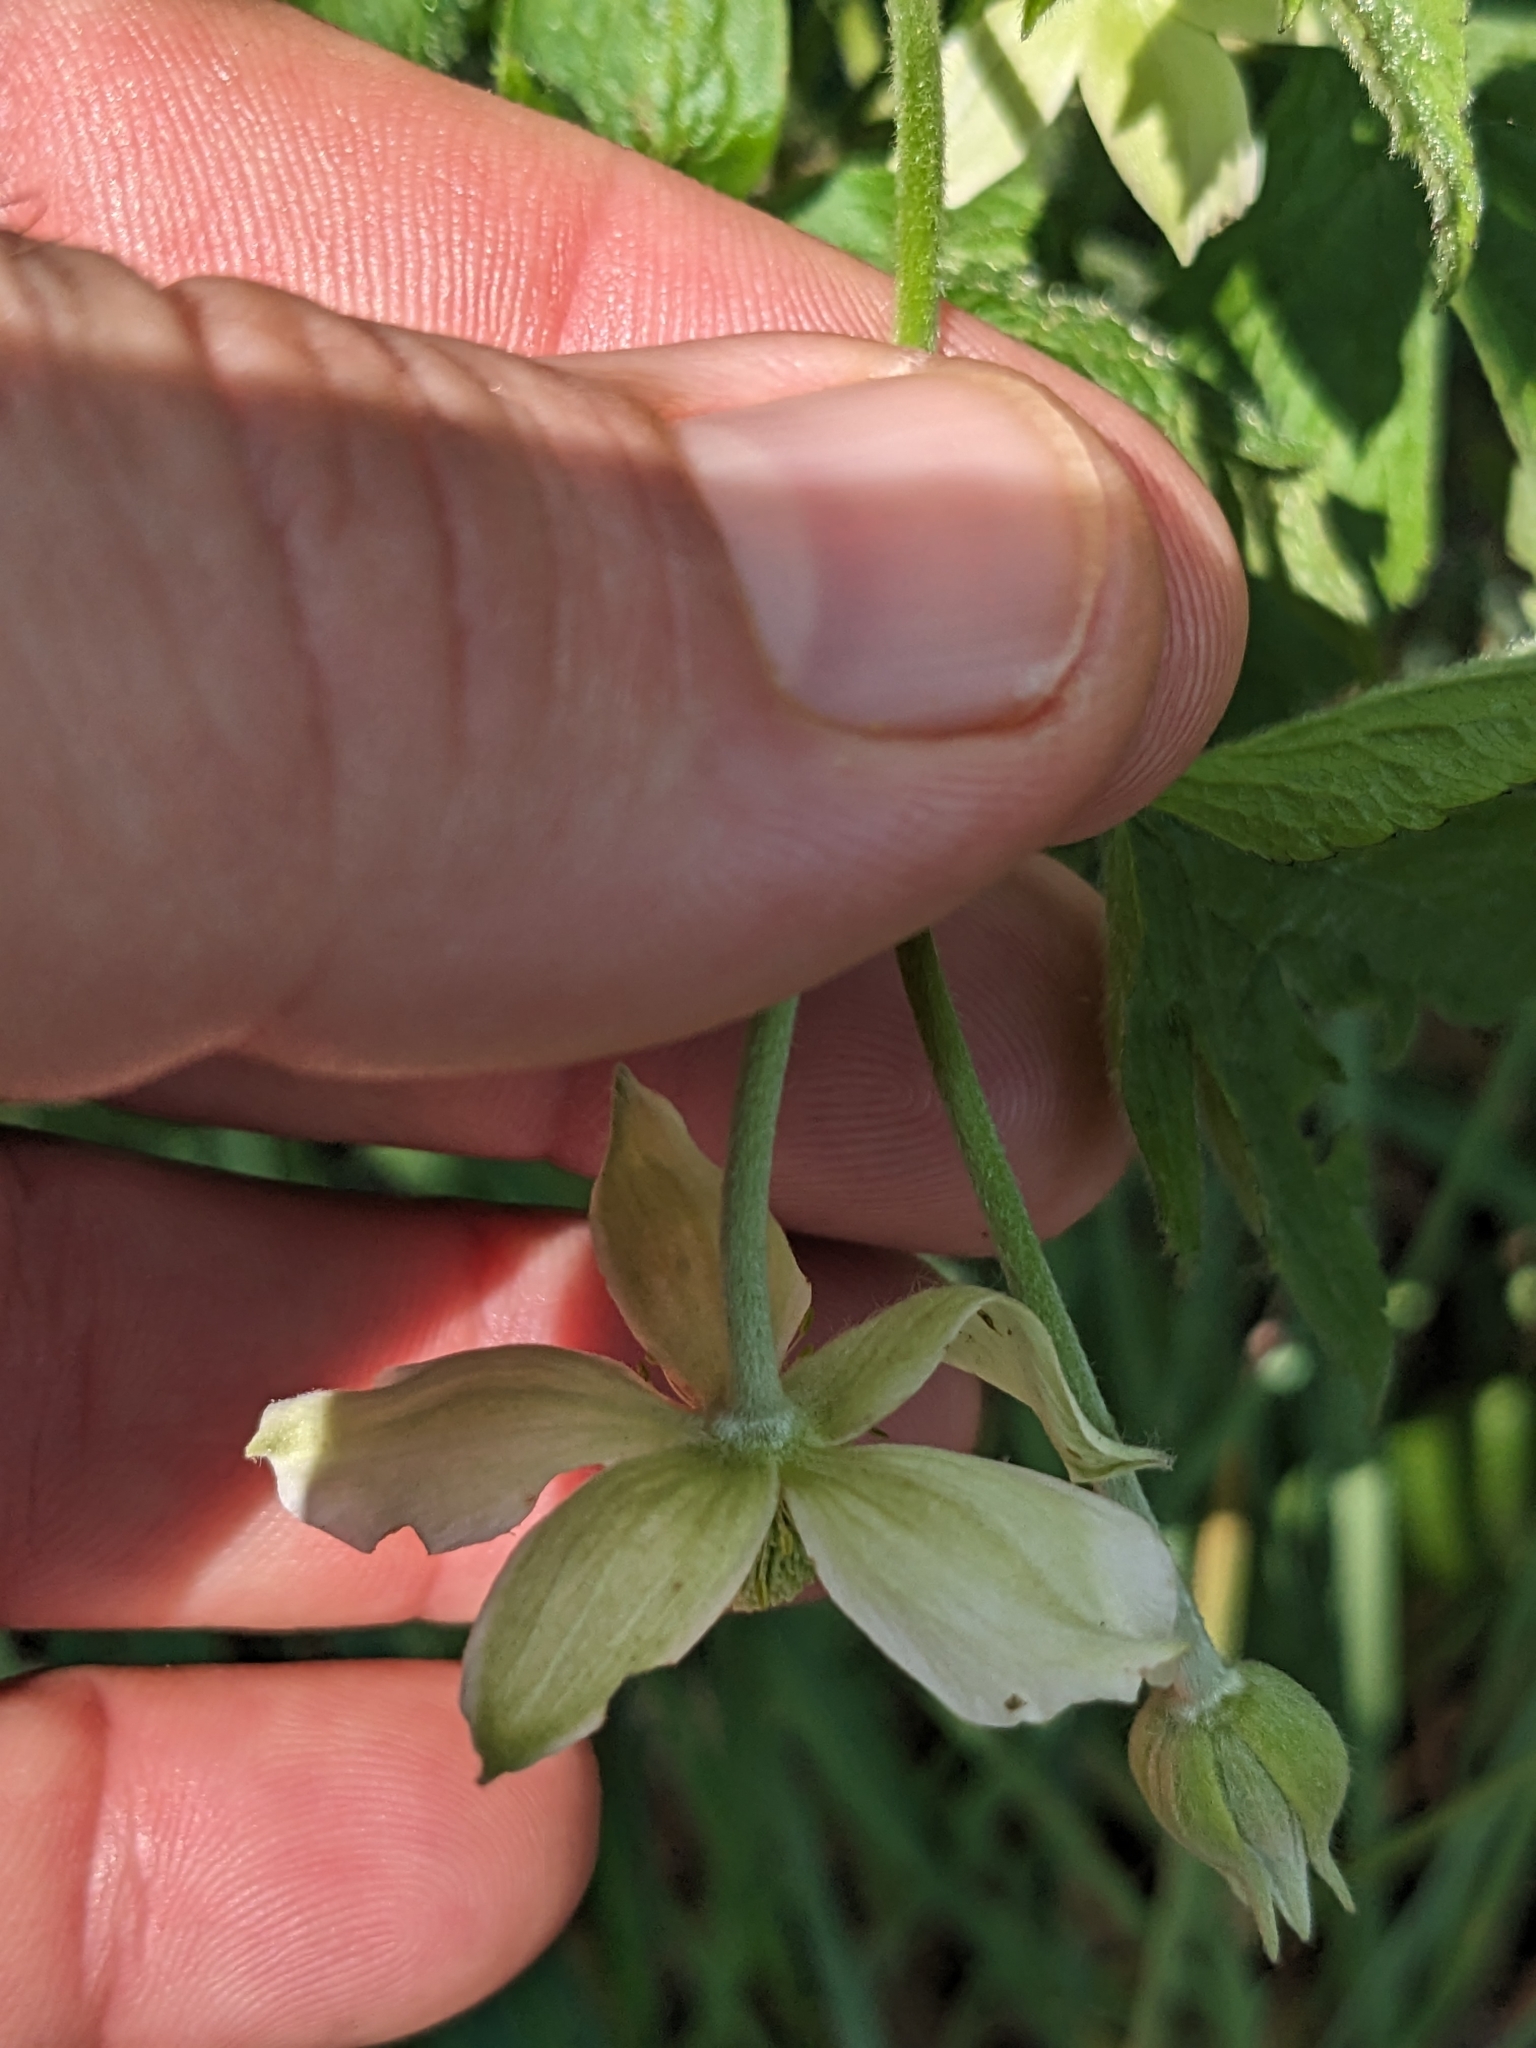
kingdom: Plantae
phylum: Tracheophyta
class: Magnoliopsida
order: Ranunculales
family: Ranunculaceae
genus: Anemone
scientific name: Anemone virginiana
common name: Tall anemone
